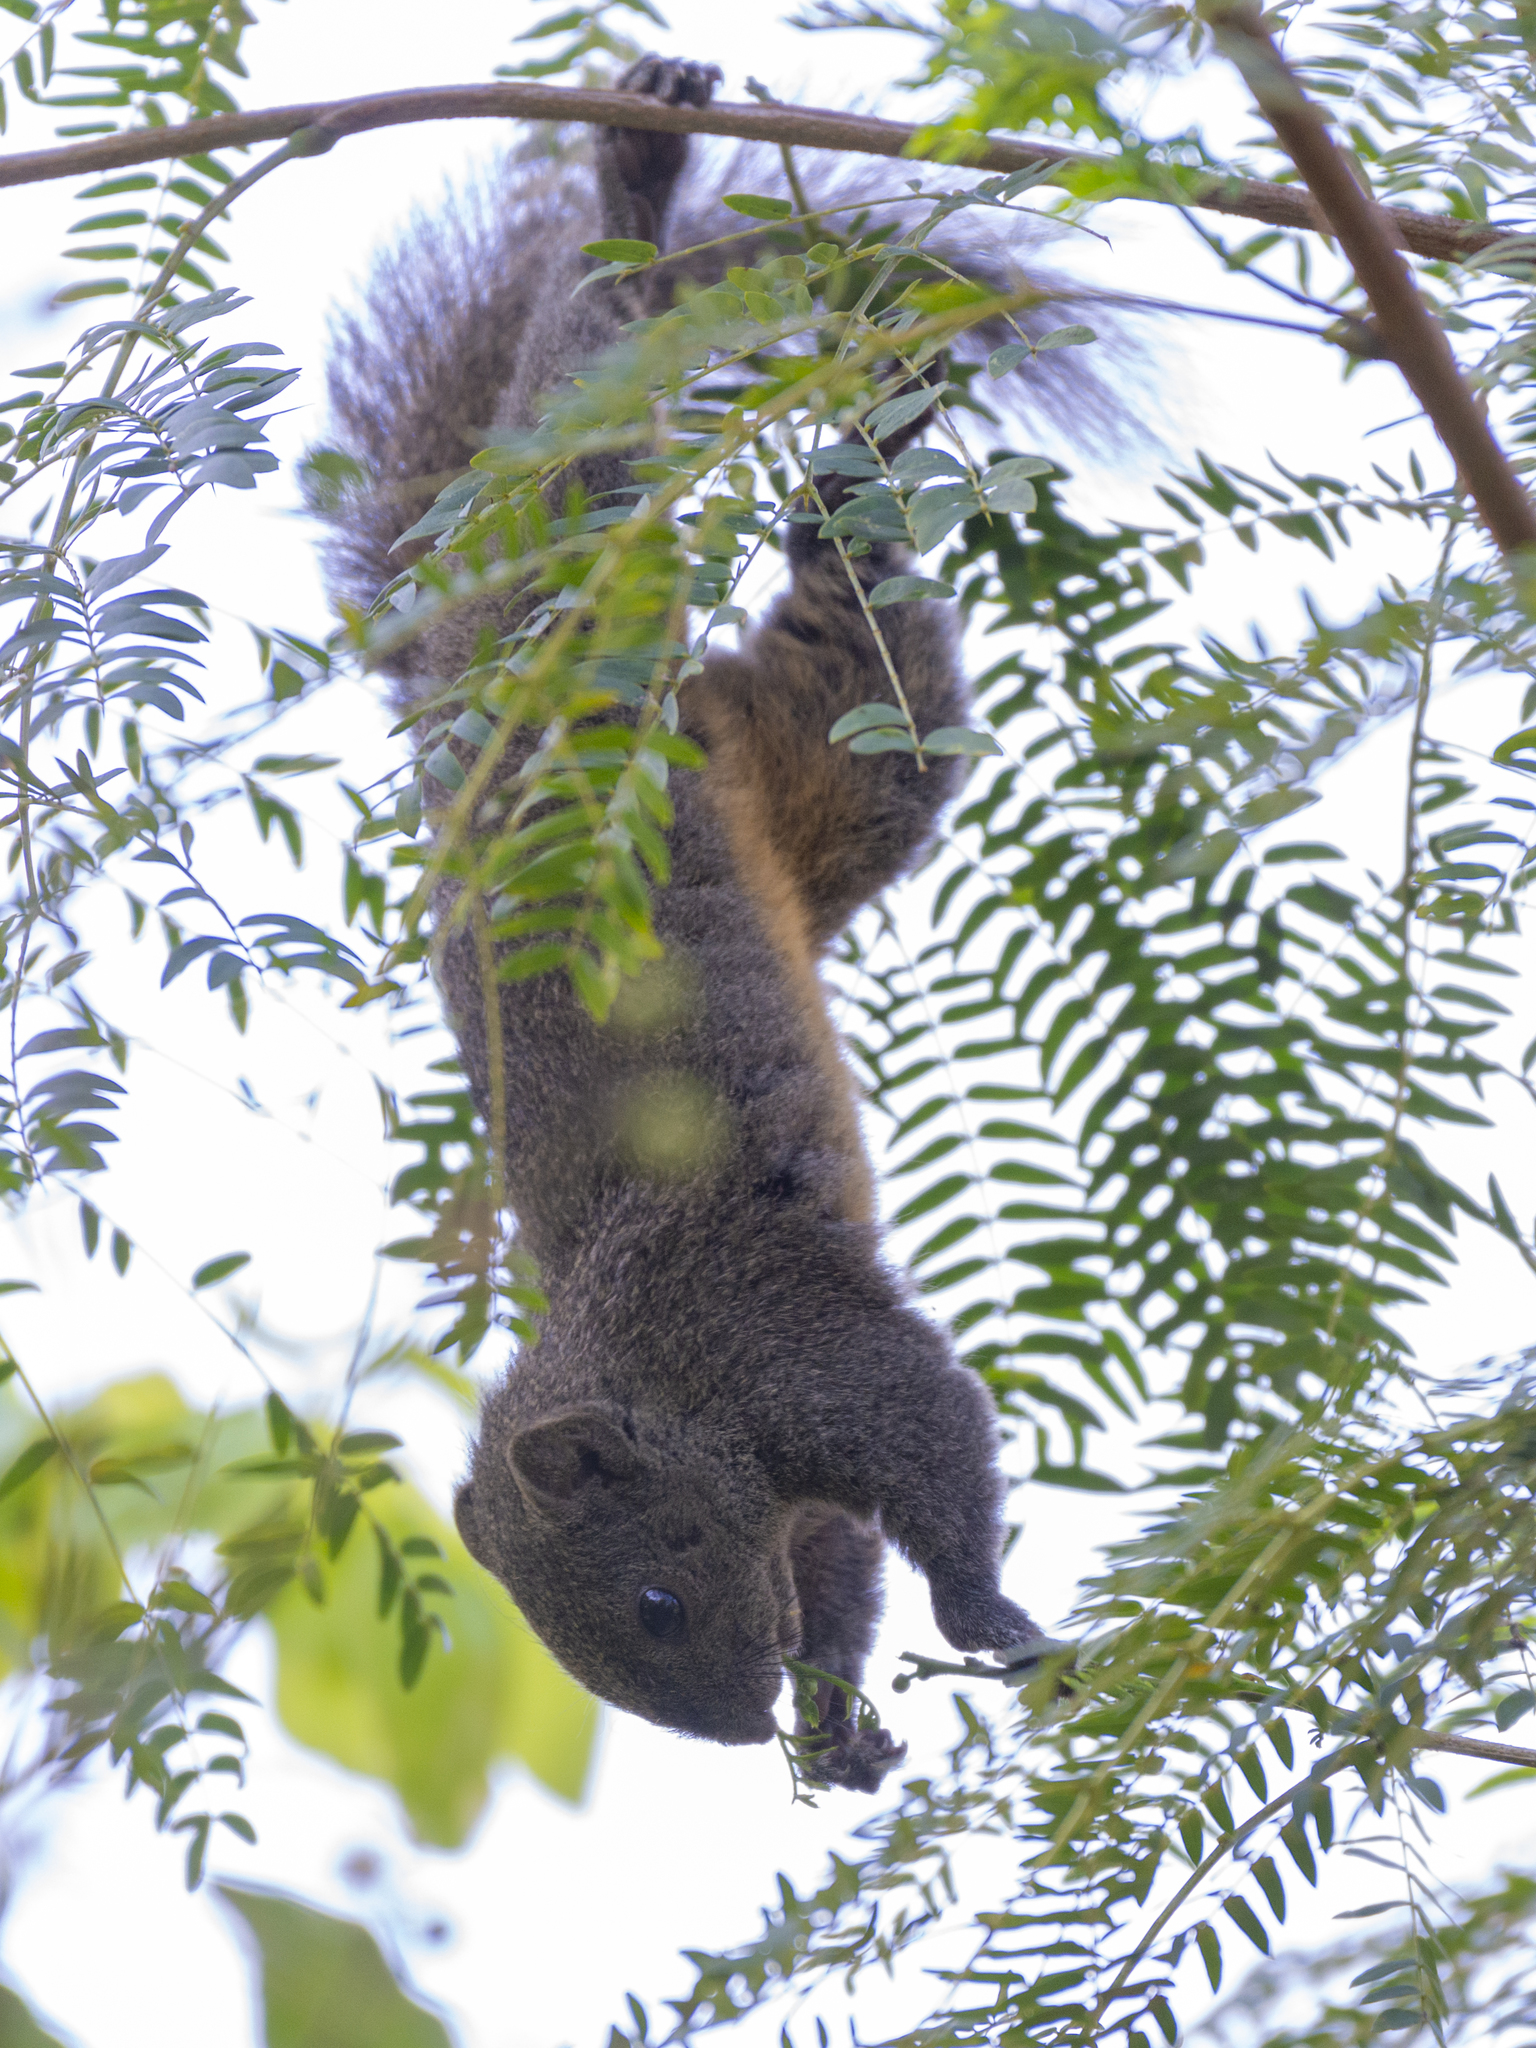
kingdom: Animalia
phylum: Chordata
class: Mammalia
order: Rodentia
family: Sciuridae
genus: Callosciurus
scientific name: Callosciurus erythraeus
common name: Pallas's squirrel
